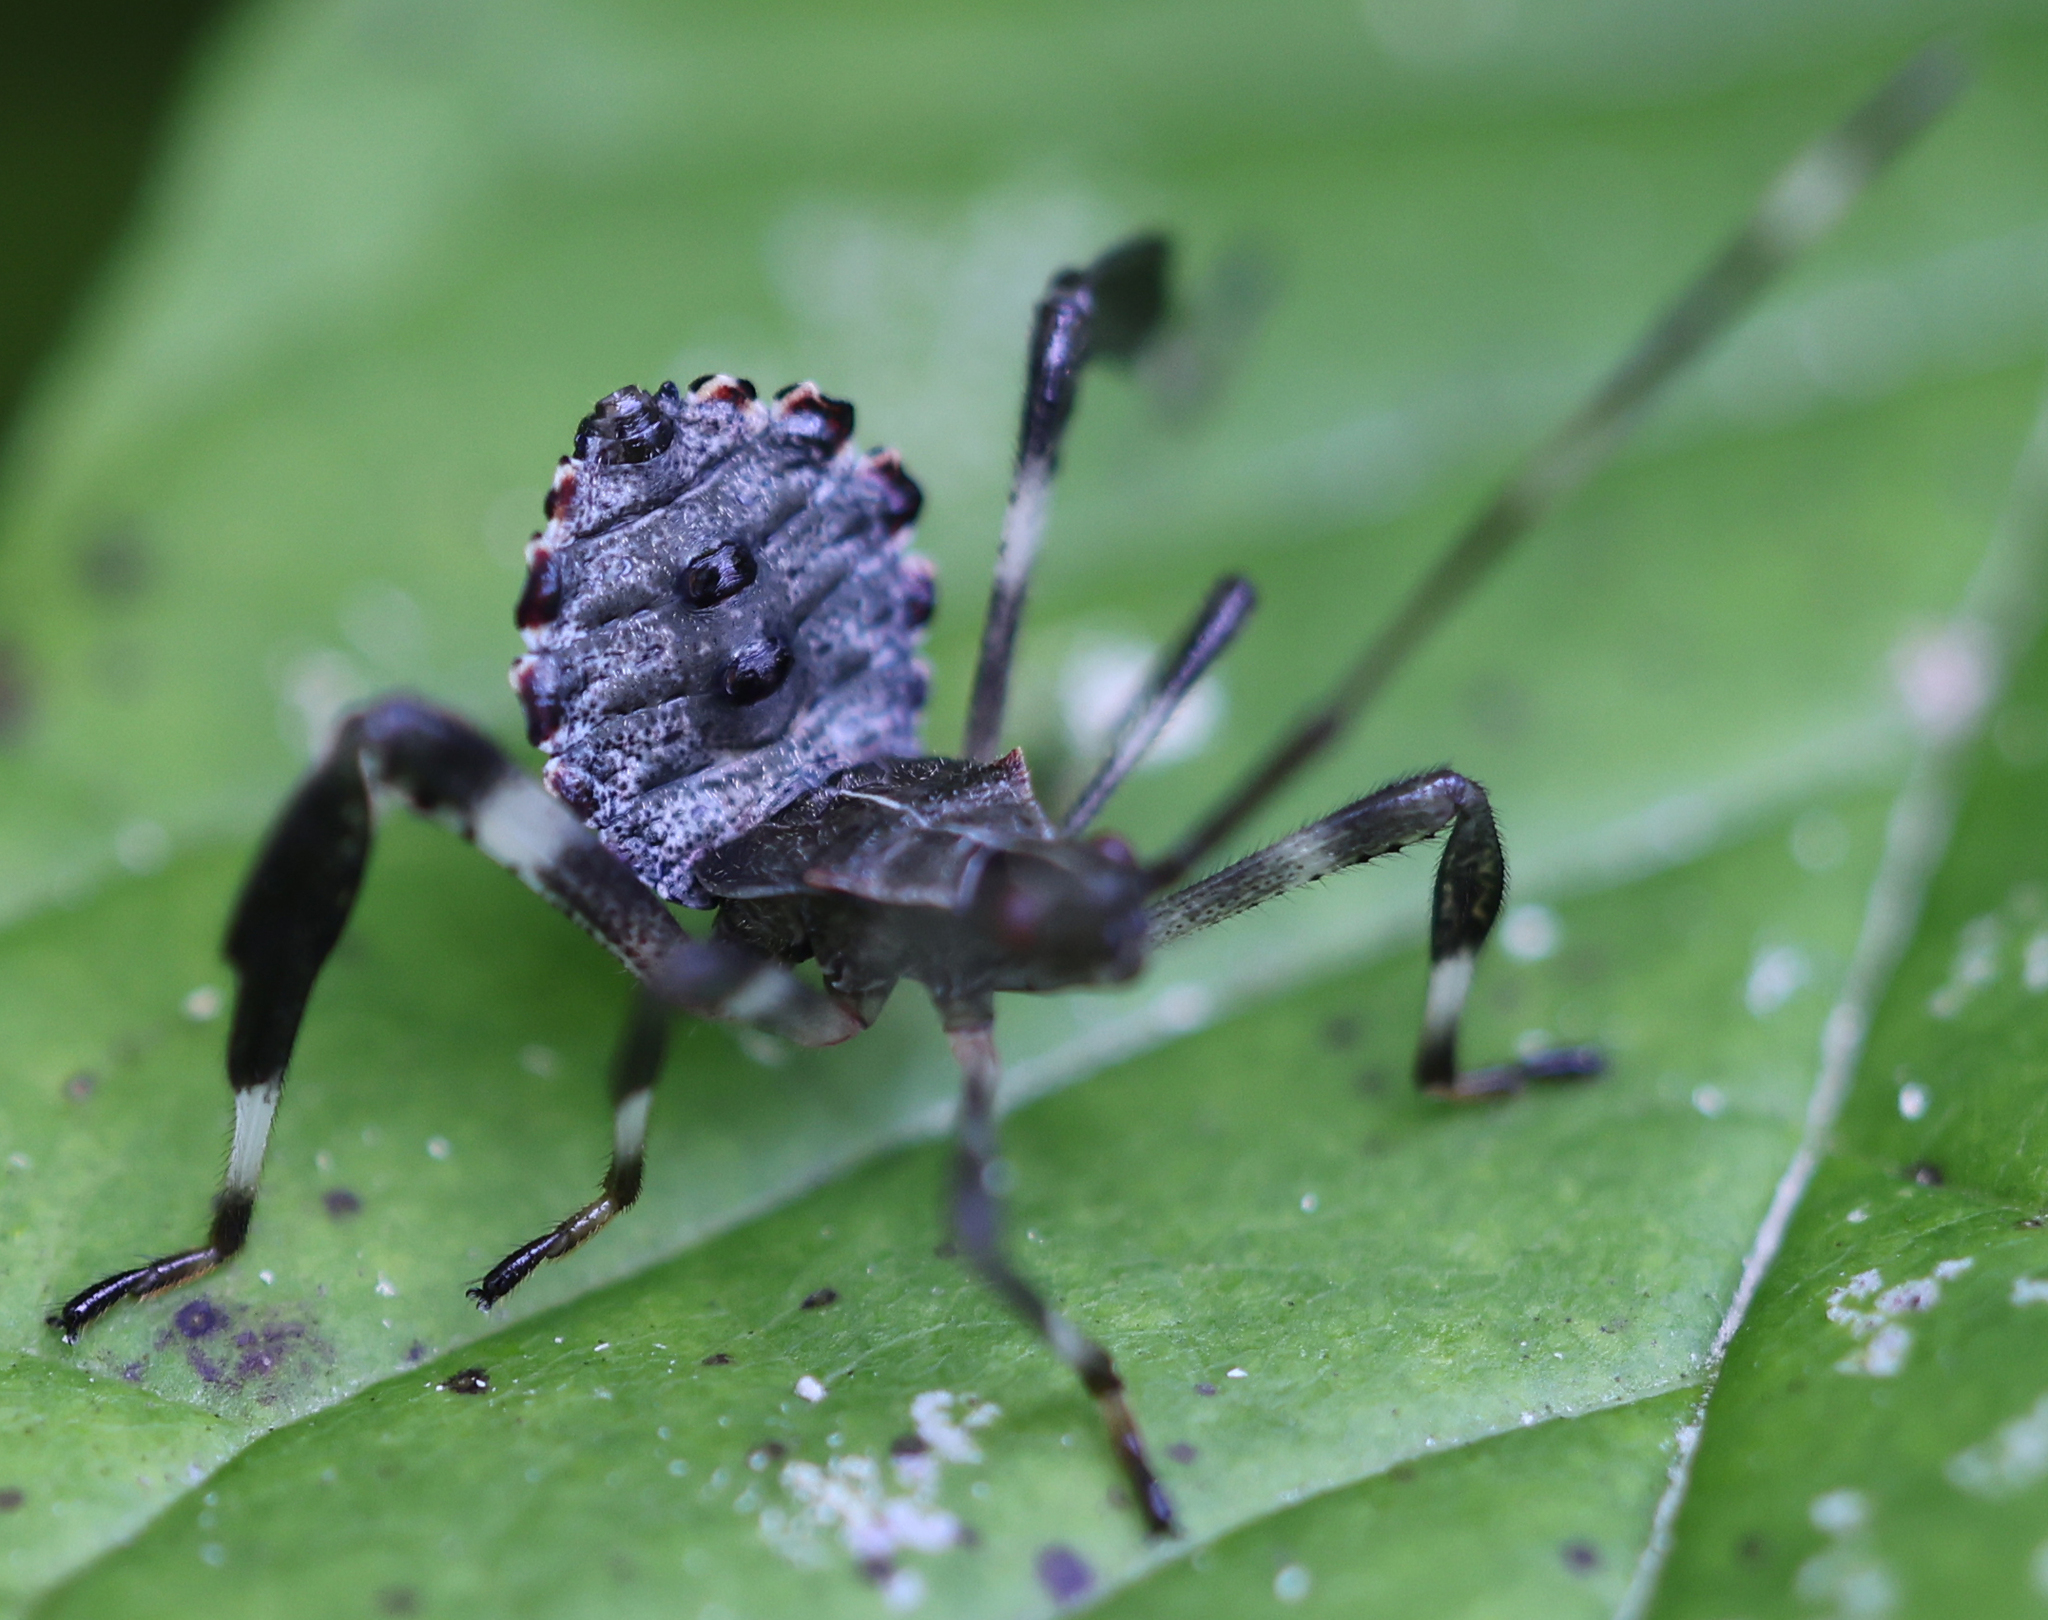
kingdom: Animalia
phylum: Arthropoda
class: Insecta
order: Hemiptera
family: Coreidae
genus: Acanthocephala
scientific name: Acanthocephala terminalis
